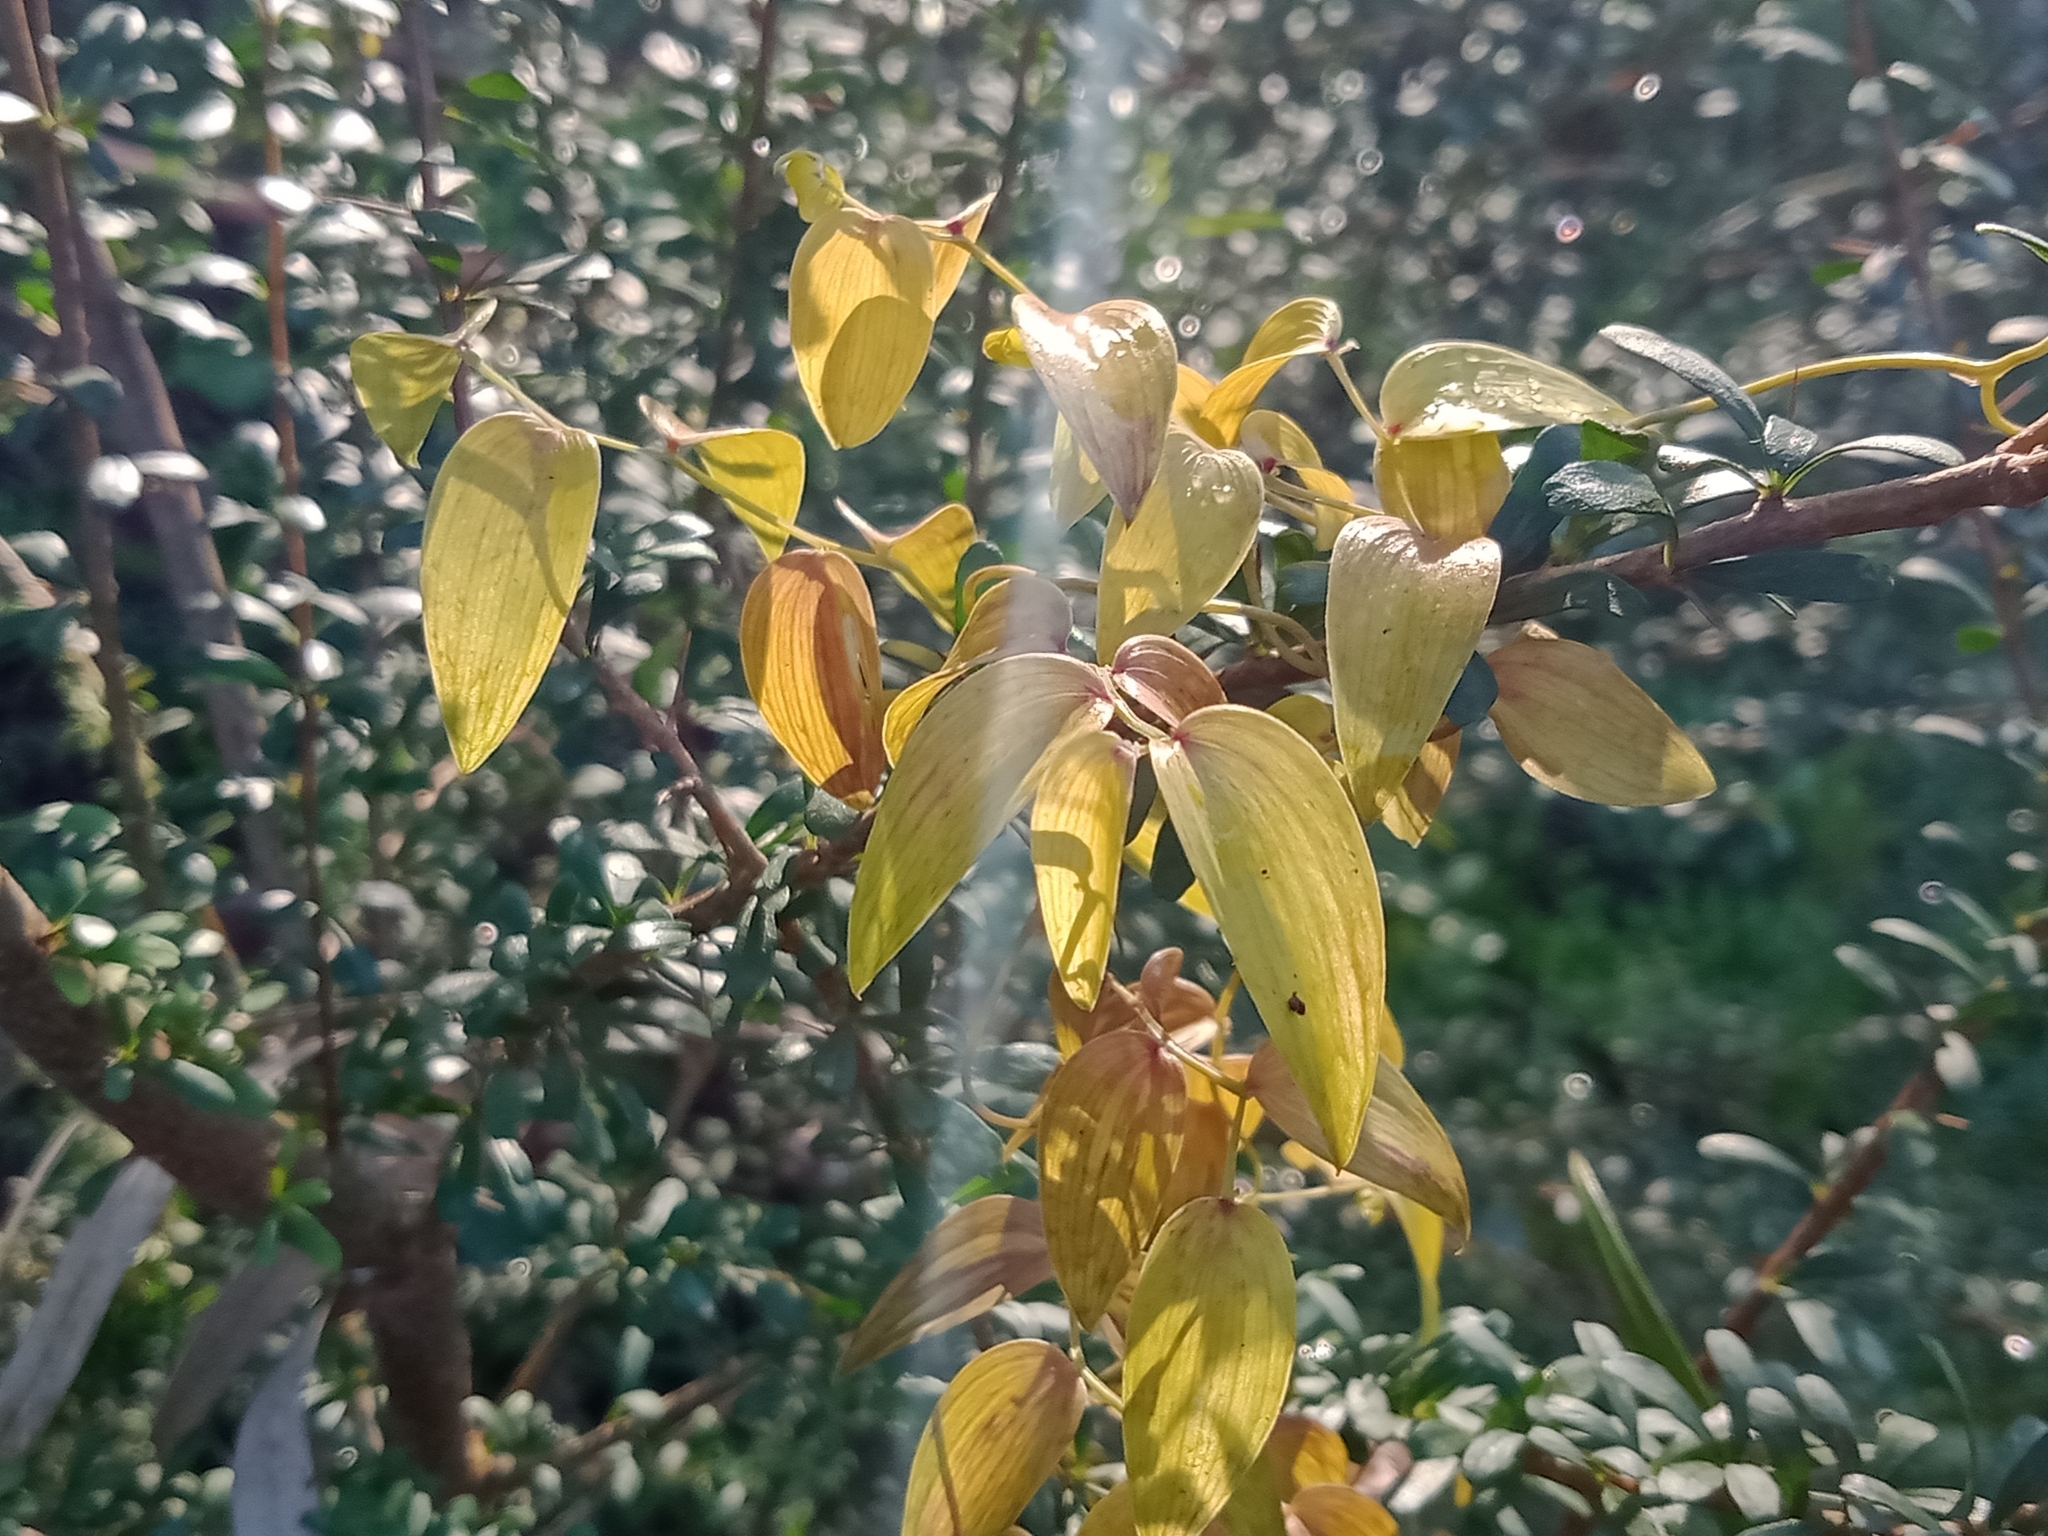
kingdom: Plantae
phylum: Tracheophyta
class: Liliopsida
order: Asparagales
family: Asparagaceae
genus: Asparagus
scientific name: Asparagus asparagoides
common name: African asparagus fern
